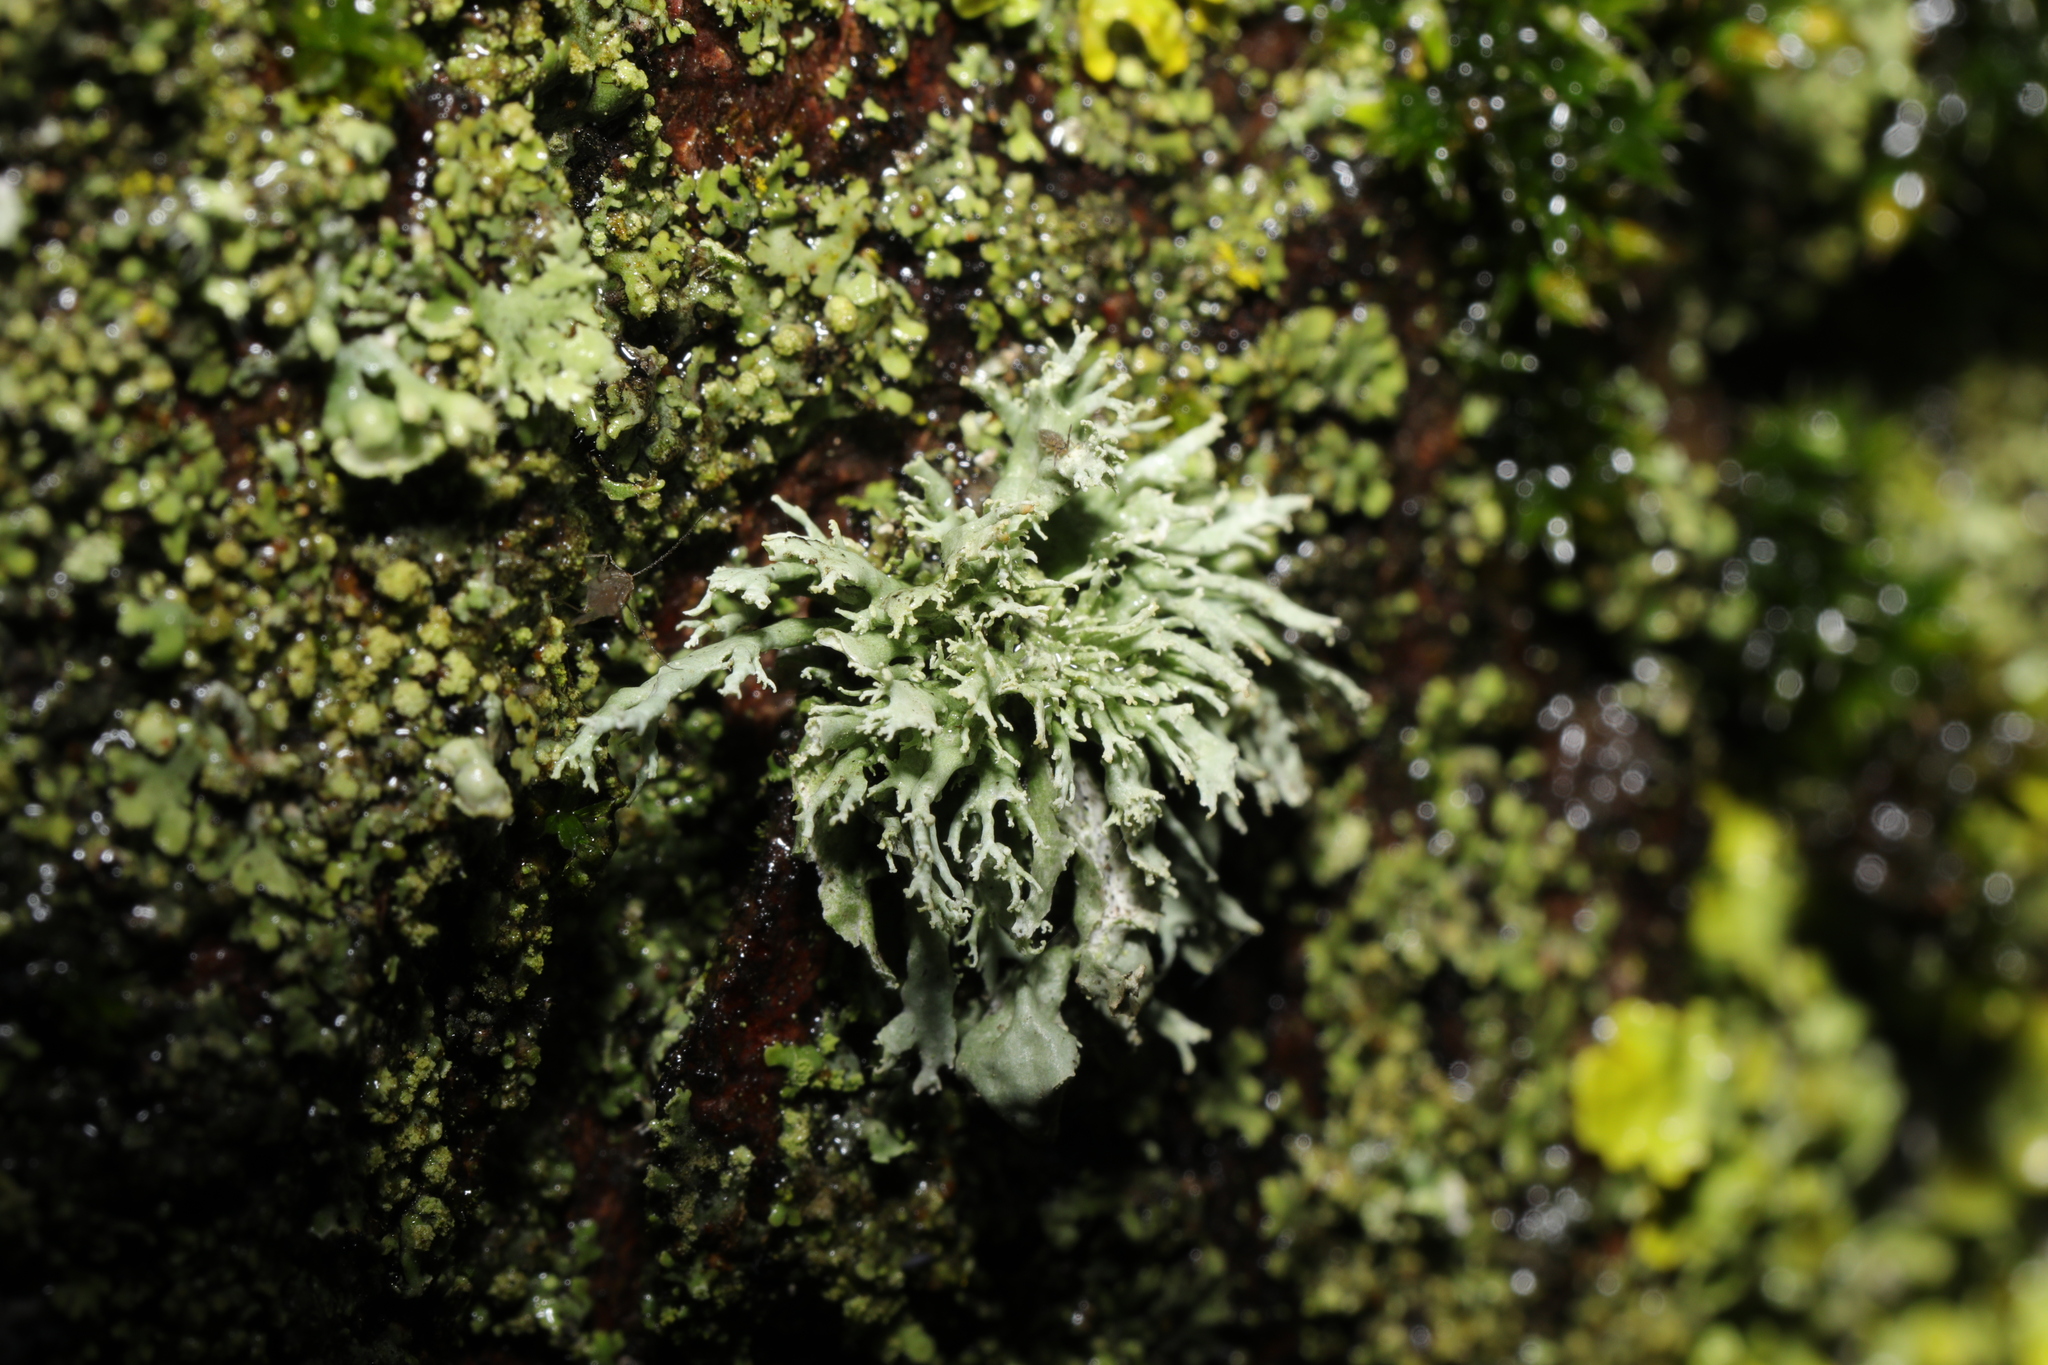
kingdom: Fungi
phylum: Ascomycota
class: Lecanoromycetes
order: Lecanorales
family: Ramalinaceae
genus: Ramalina
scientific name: Ramalina farinacea
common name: Farinose cartilage lichen
